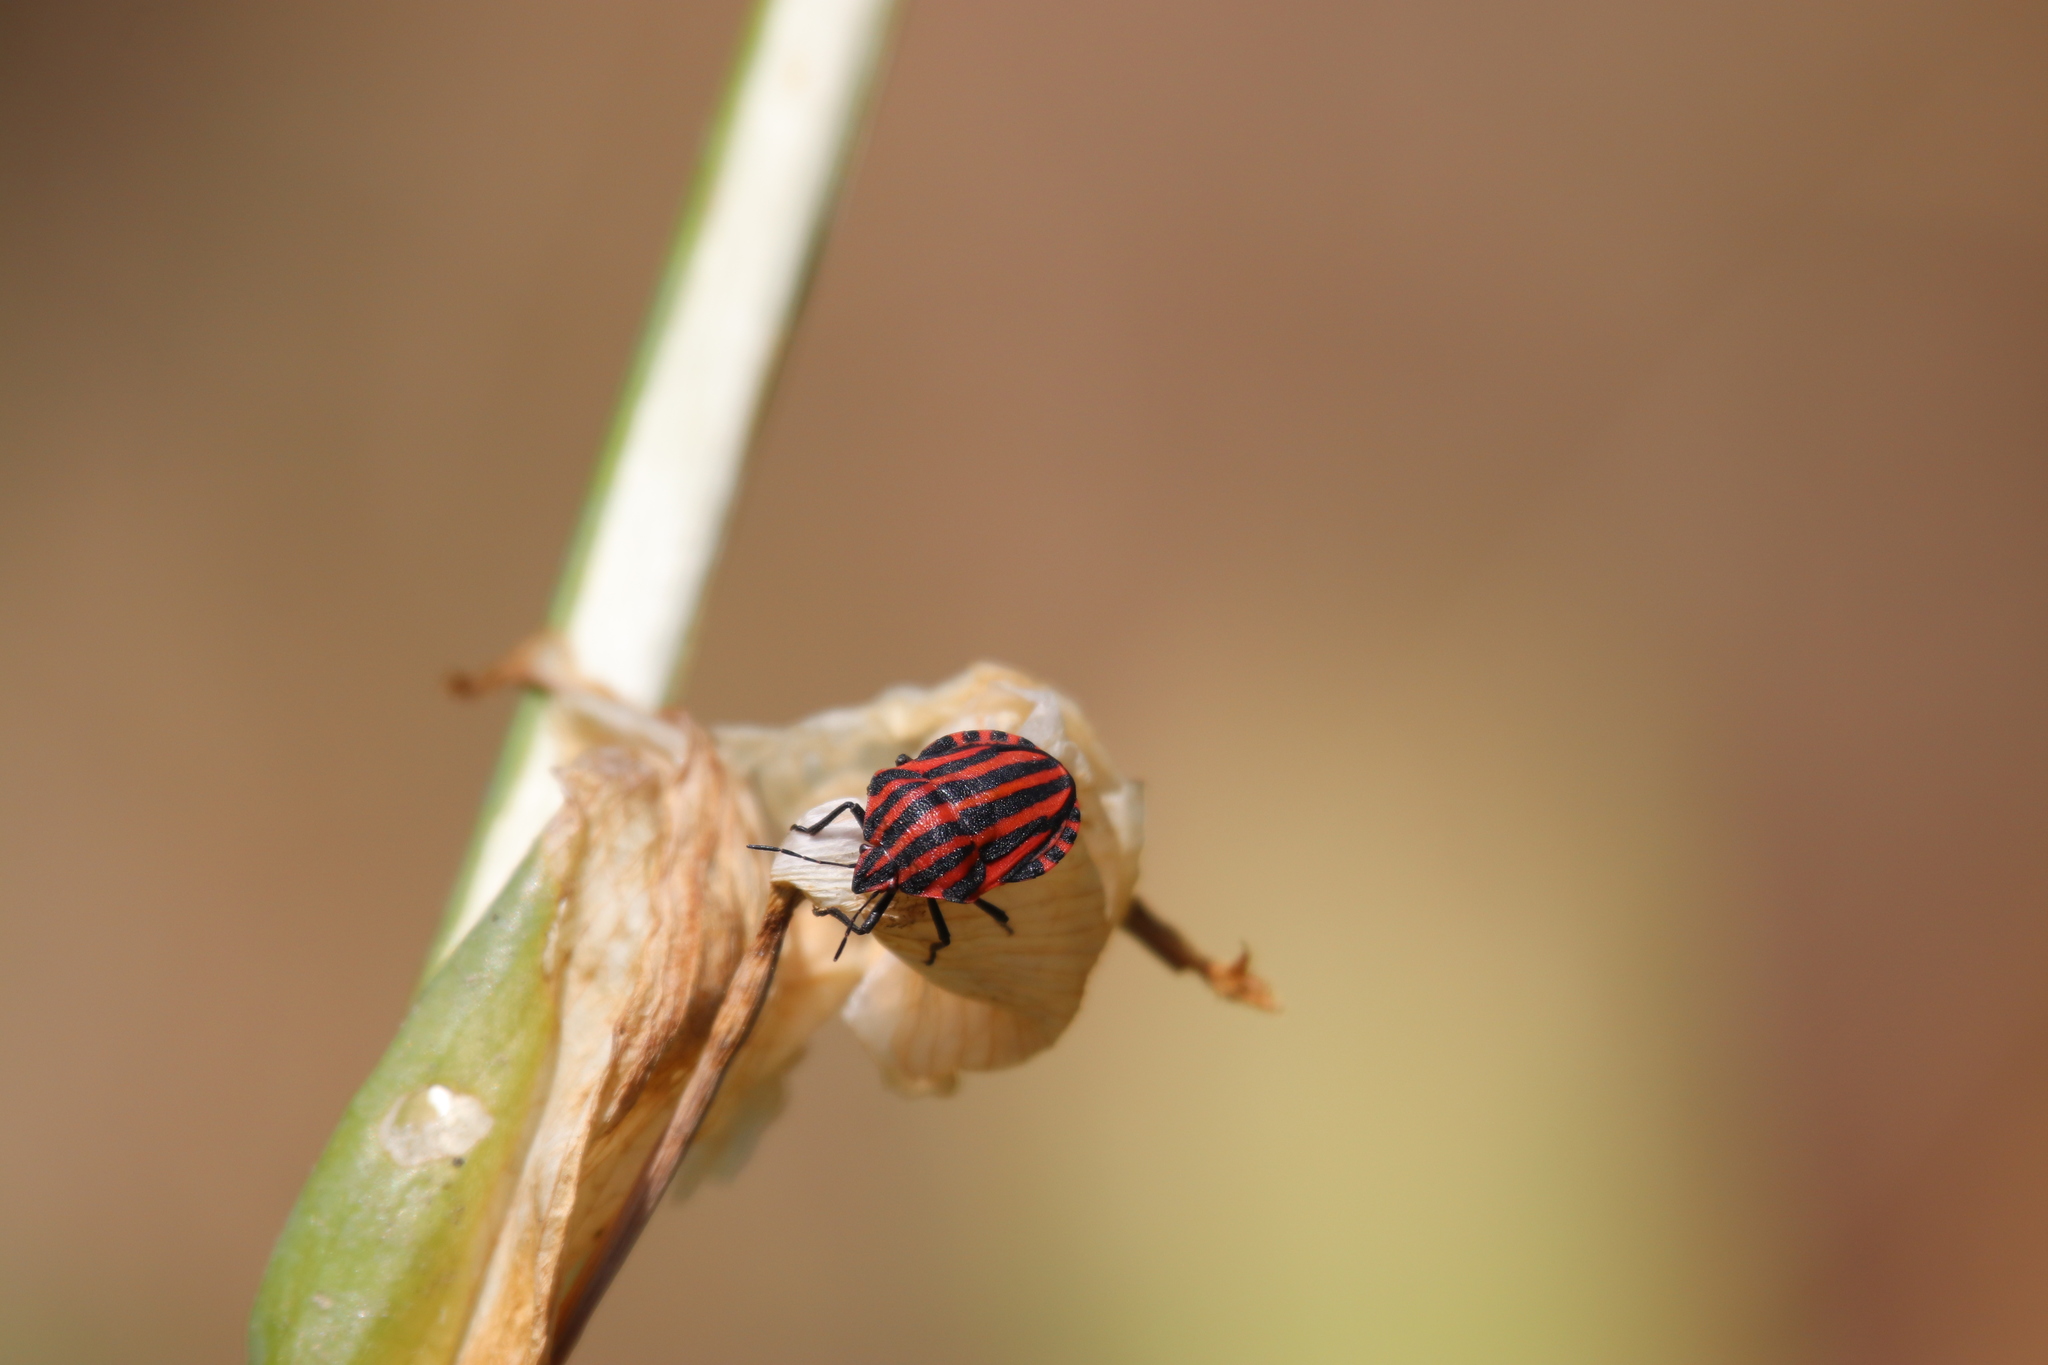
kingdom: Animalia
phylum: Arthropoda
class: Insecta
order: Hemiptera
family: Pentatomidae
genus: Graphosoma
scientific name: Graphosoma italicum
